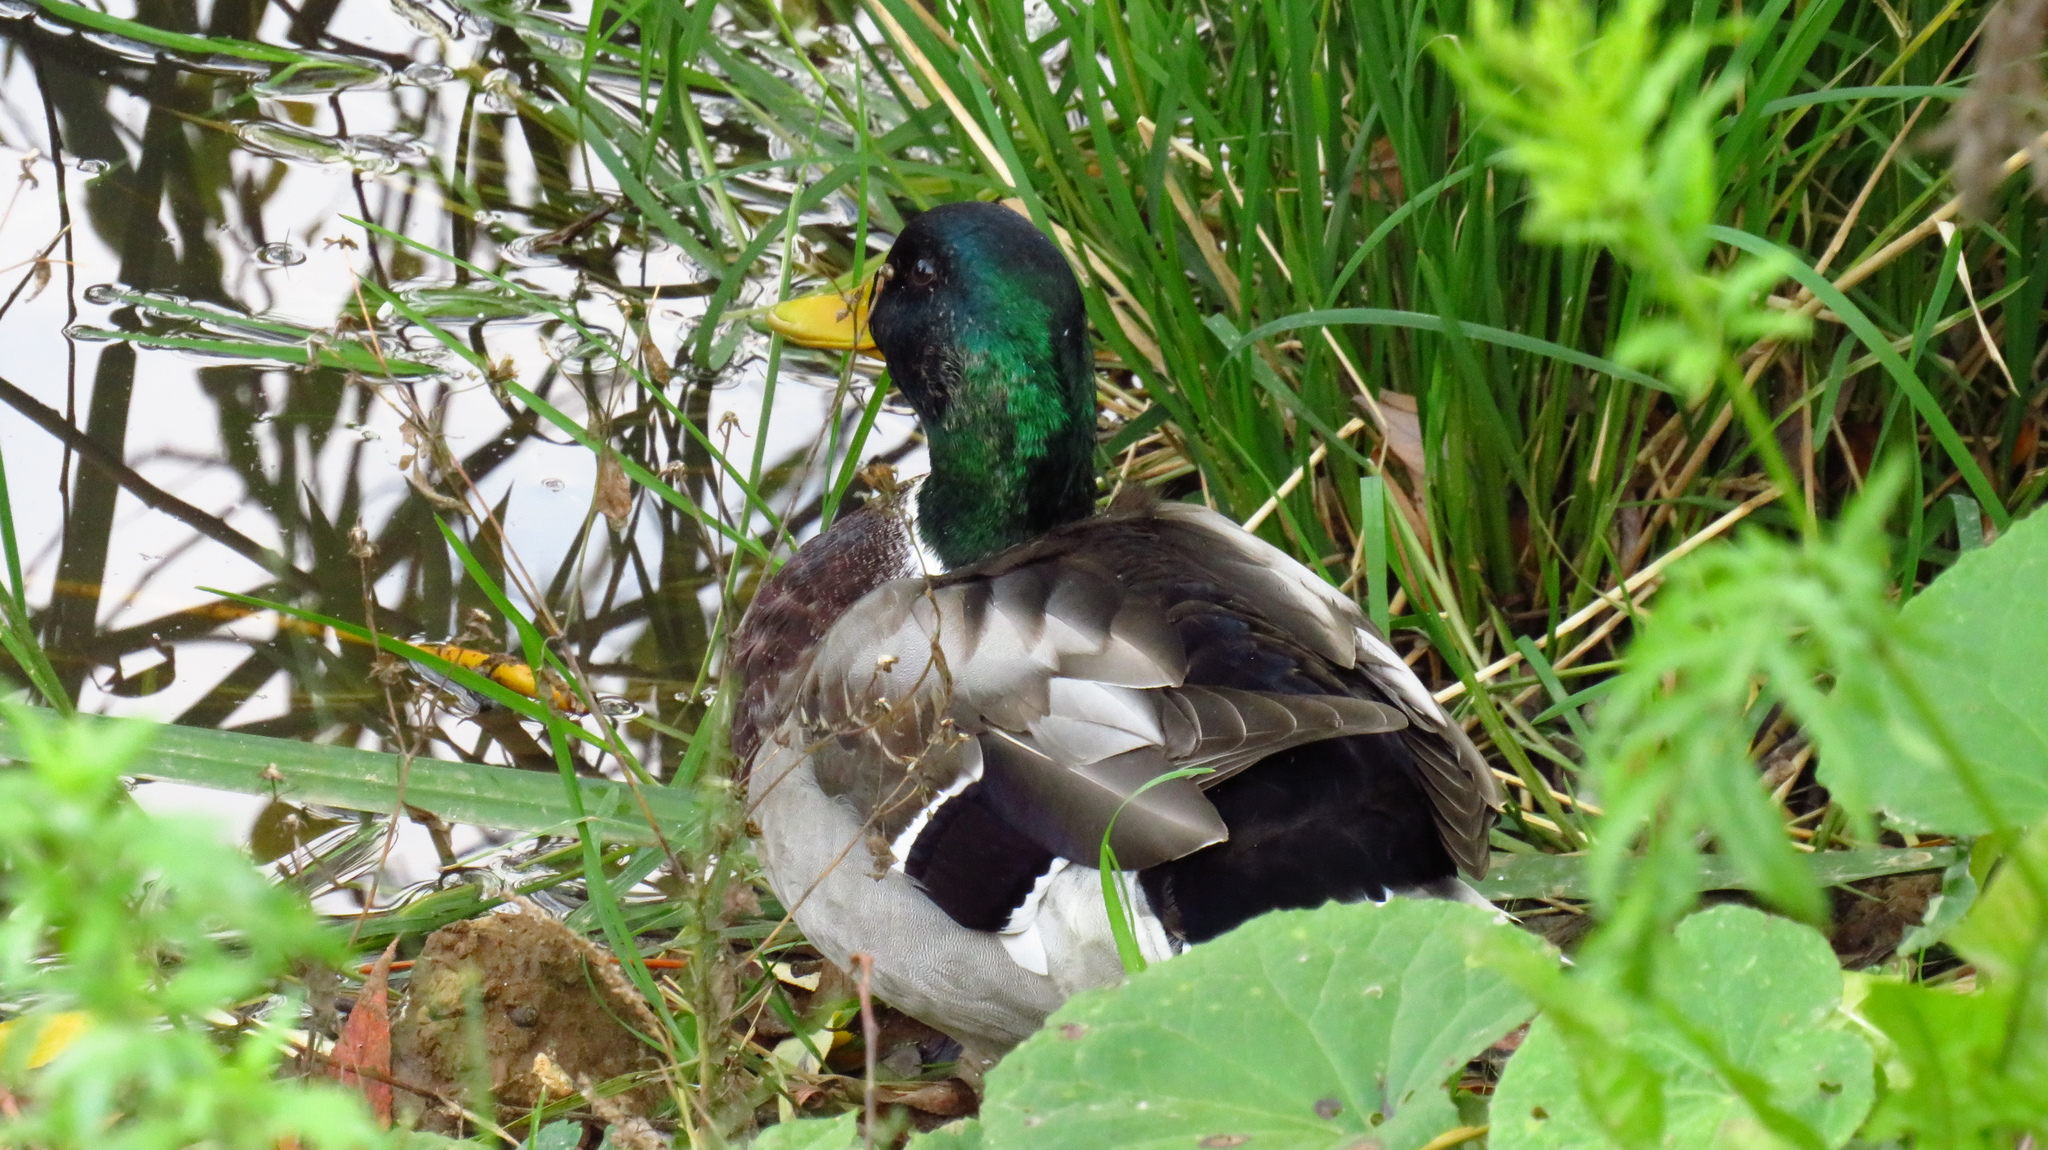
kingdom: Animalia
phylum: Chordata
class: Aves
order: Anseriformes
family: Anatidae
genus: Anas
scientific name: Anas platyrhynchos
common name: Mallard
